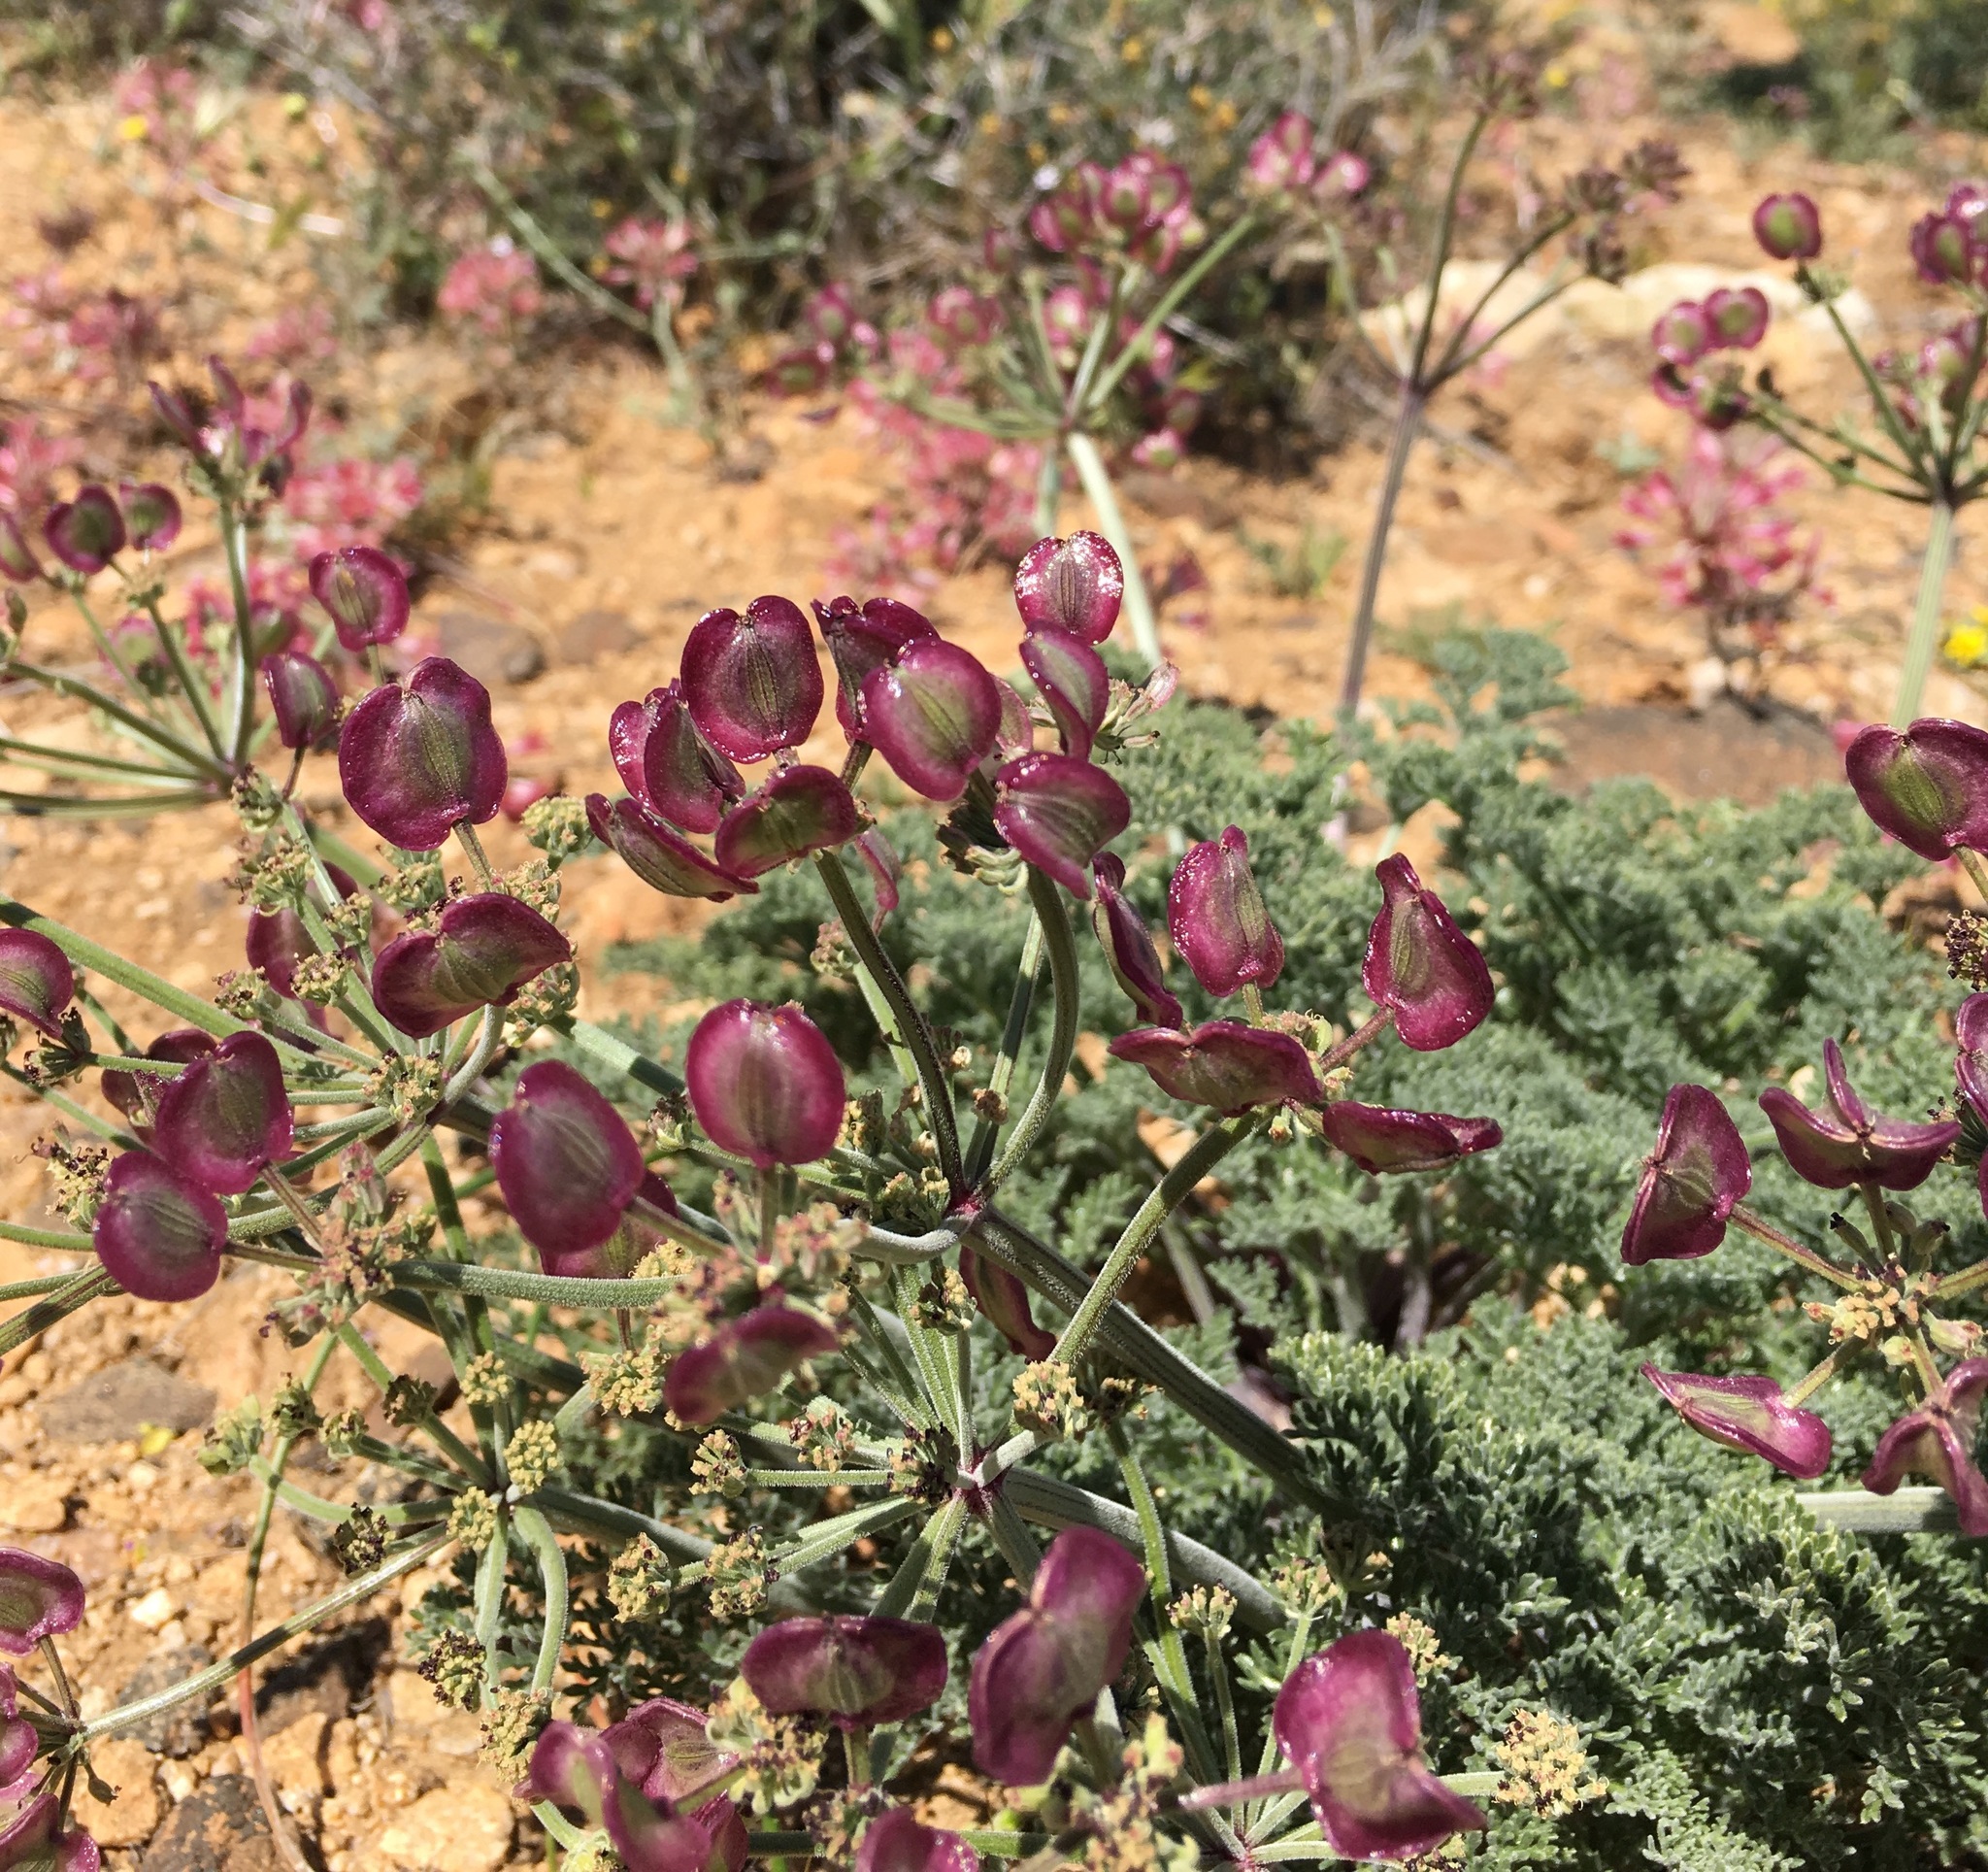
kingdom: Plantae
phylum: Tracheophyta
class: Magnoliopsida
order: Apiales
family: Apiaceae
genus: Lomatium
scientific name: Lomatium mohavense
